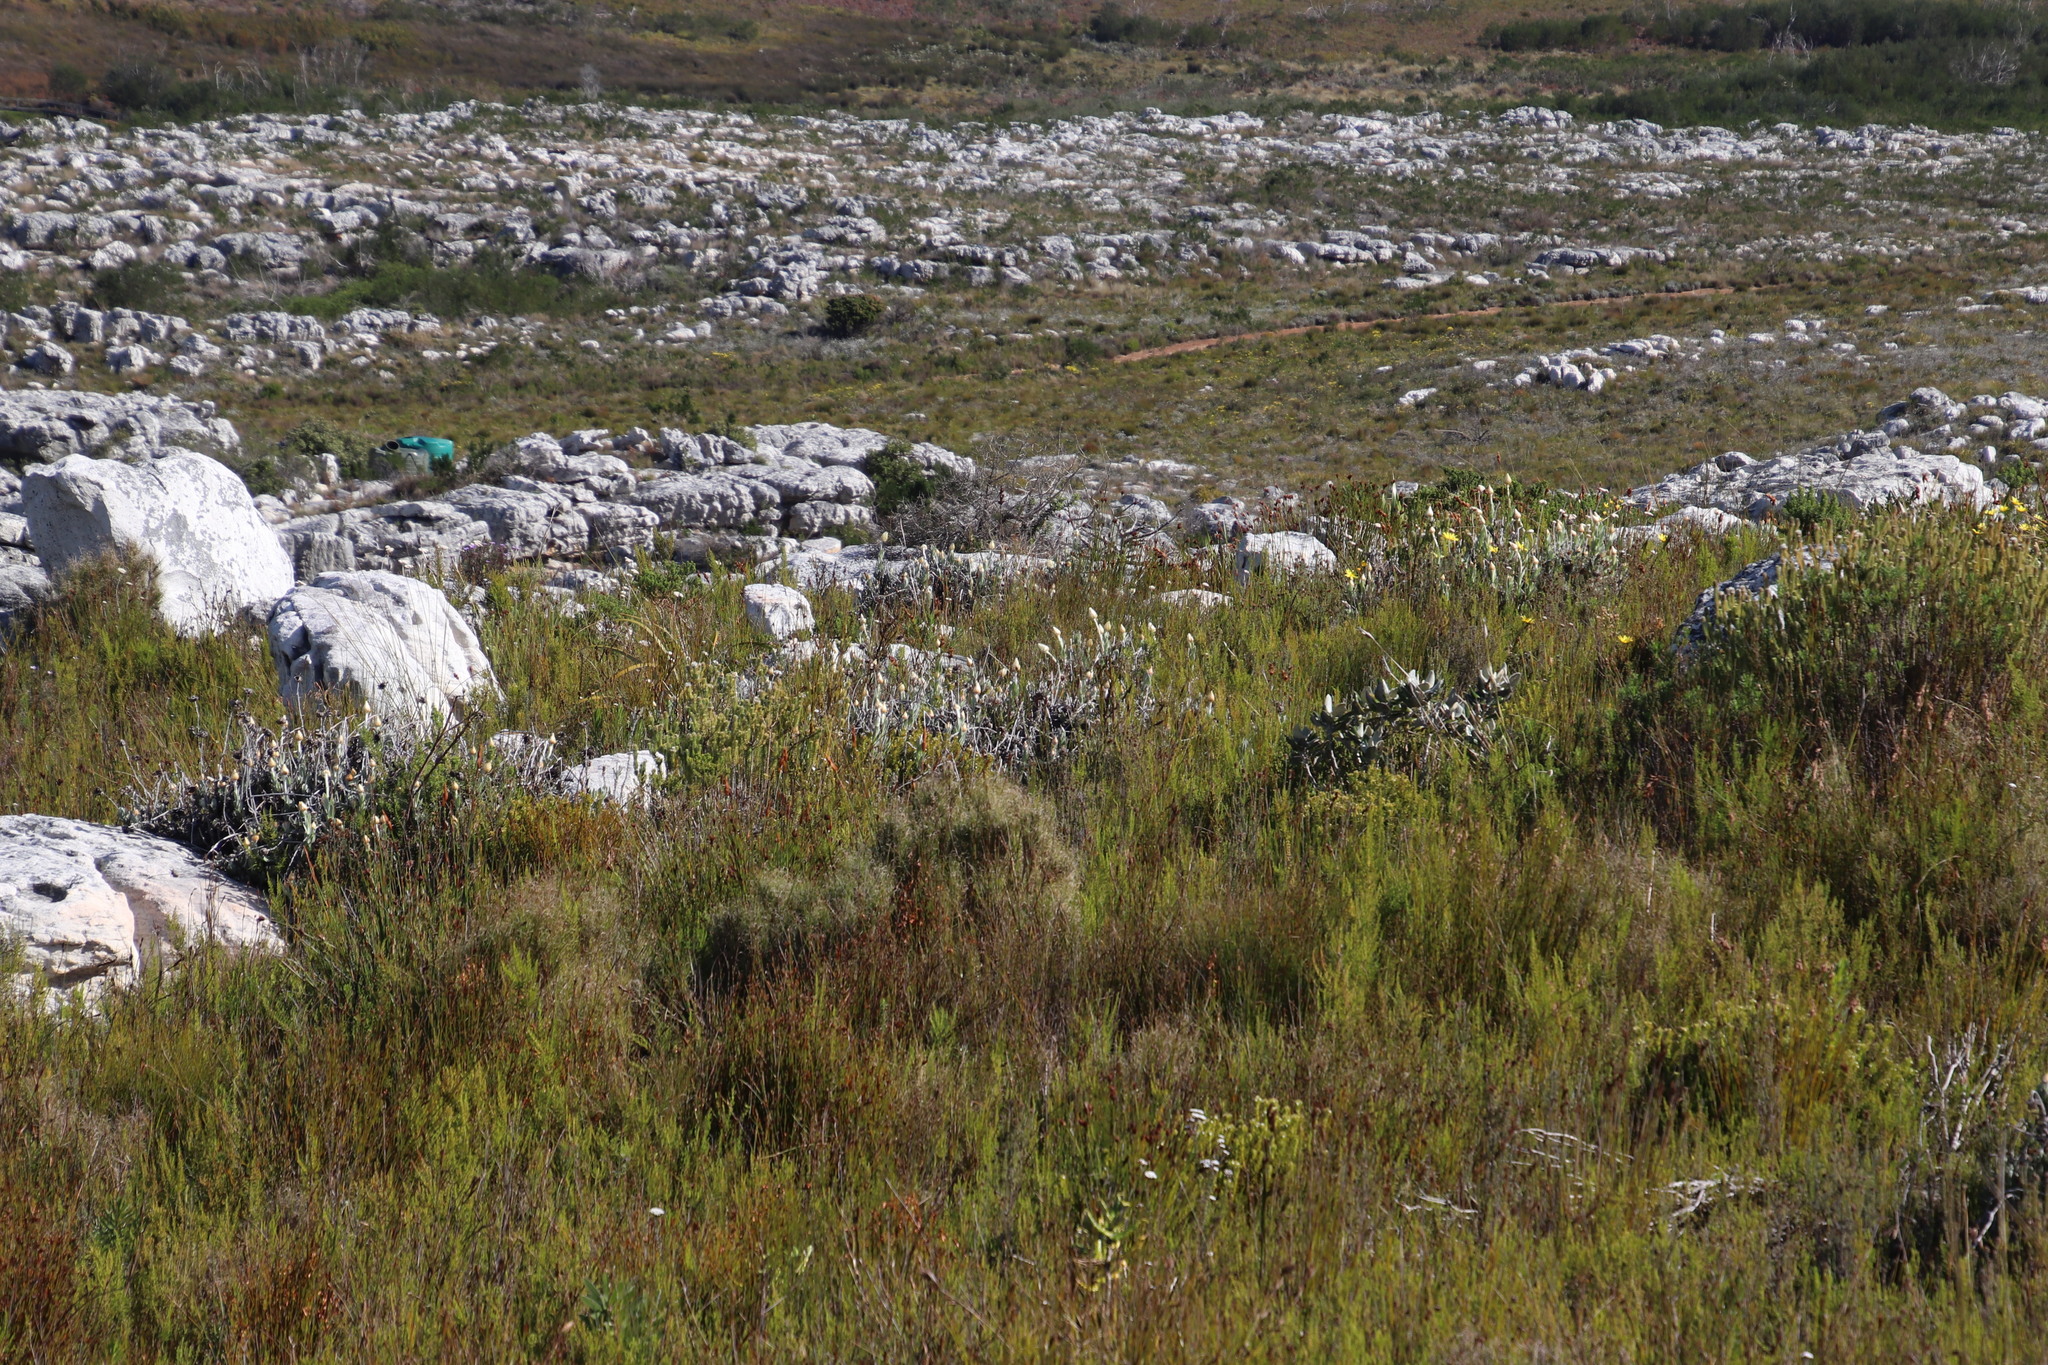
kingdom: Plantae
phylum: Tracheophyta
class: Magnoliopsida
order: Asterales
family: Asteraceae
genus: Syncarpha
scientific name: Syncarpha speciosissima
